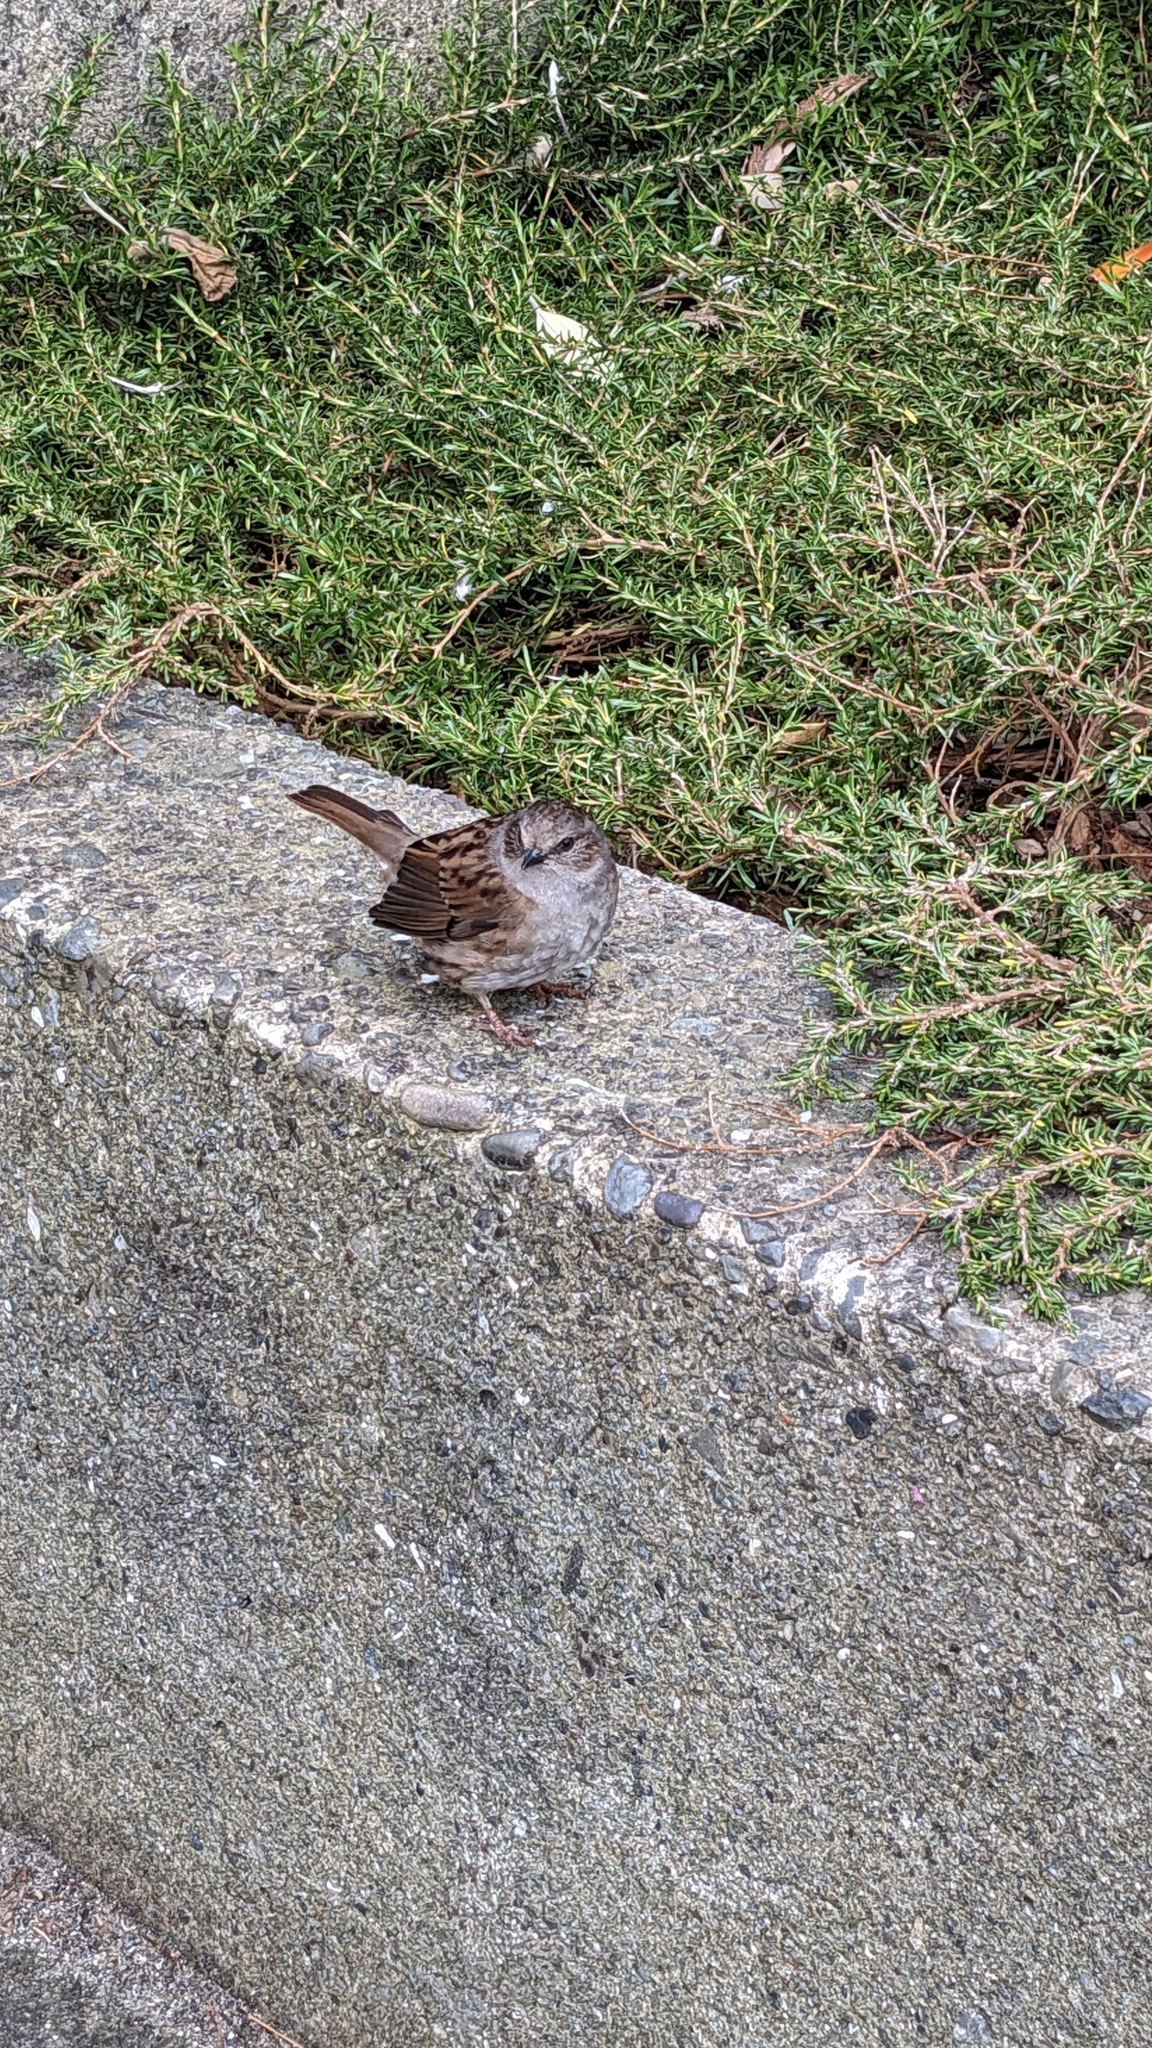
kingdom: Animalia
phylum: Chordata
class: Aves
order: Passeriformes
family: Prunellidae
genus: Prunella
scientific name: Prunella modularis
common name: Dunnock
